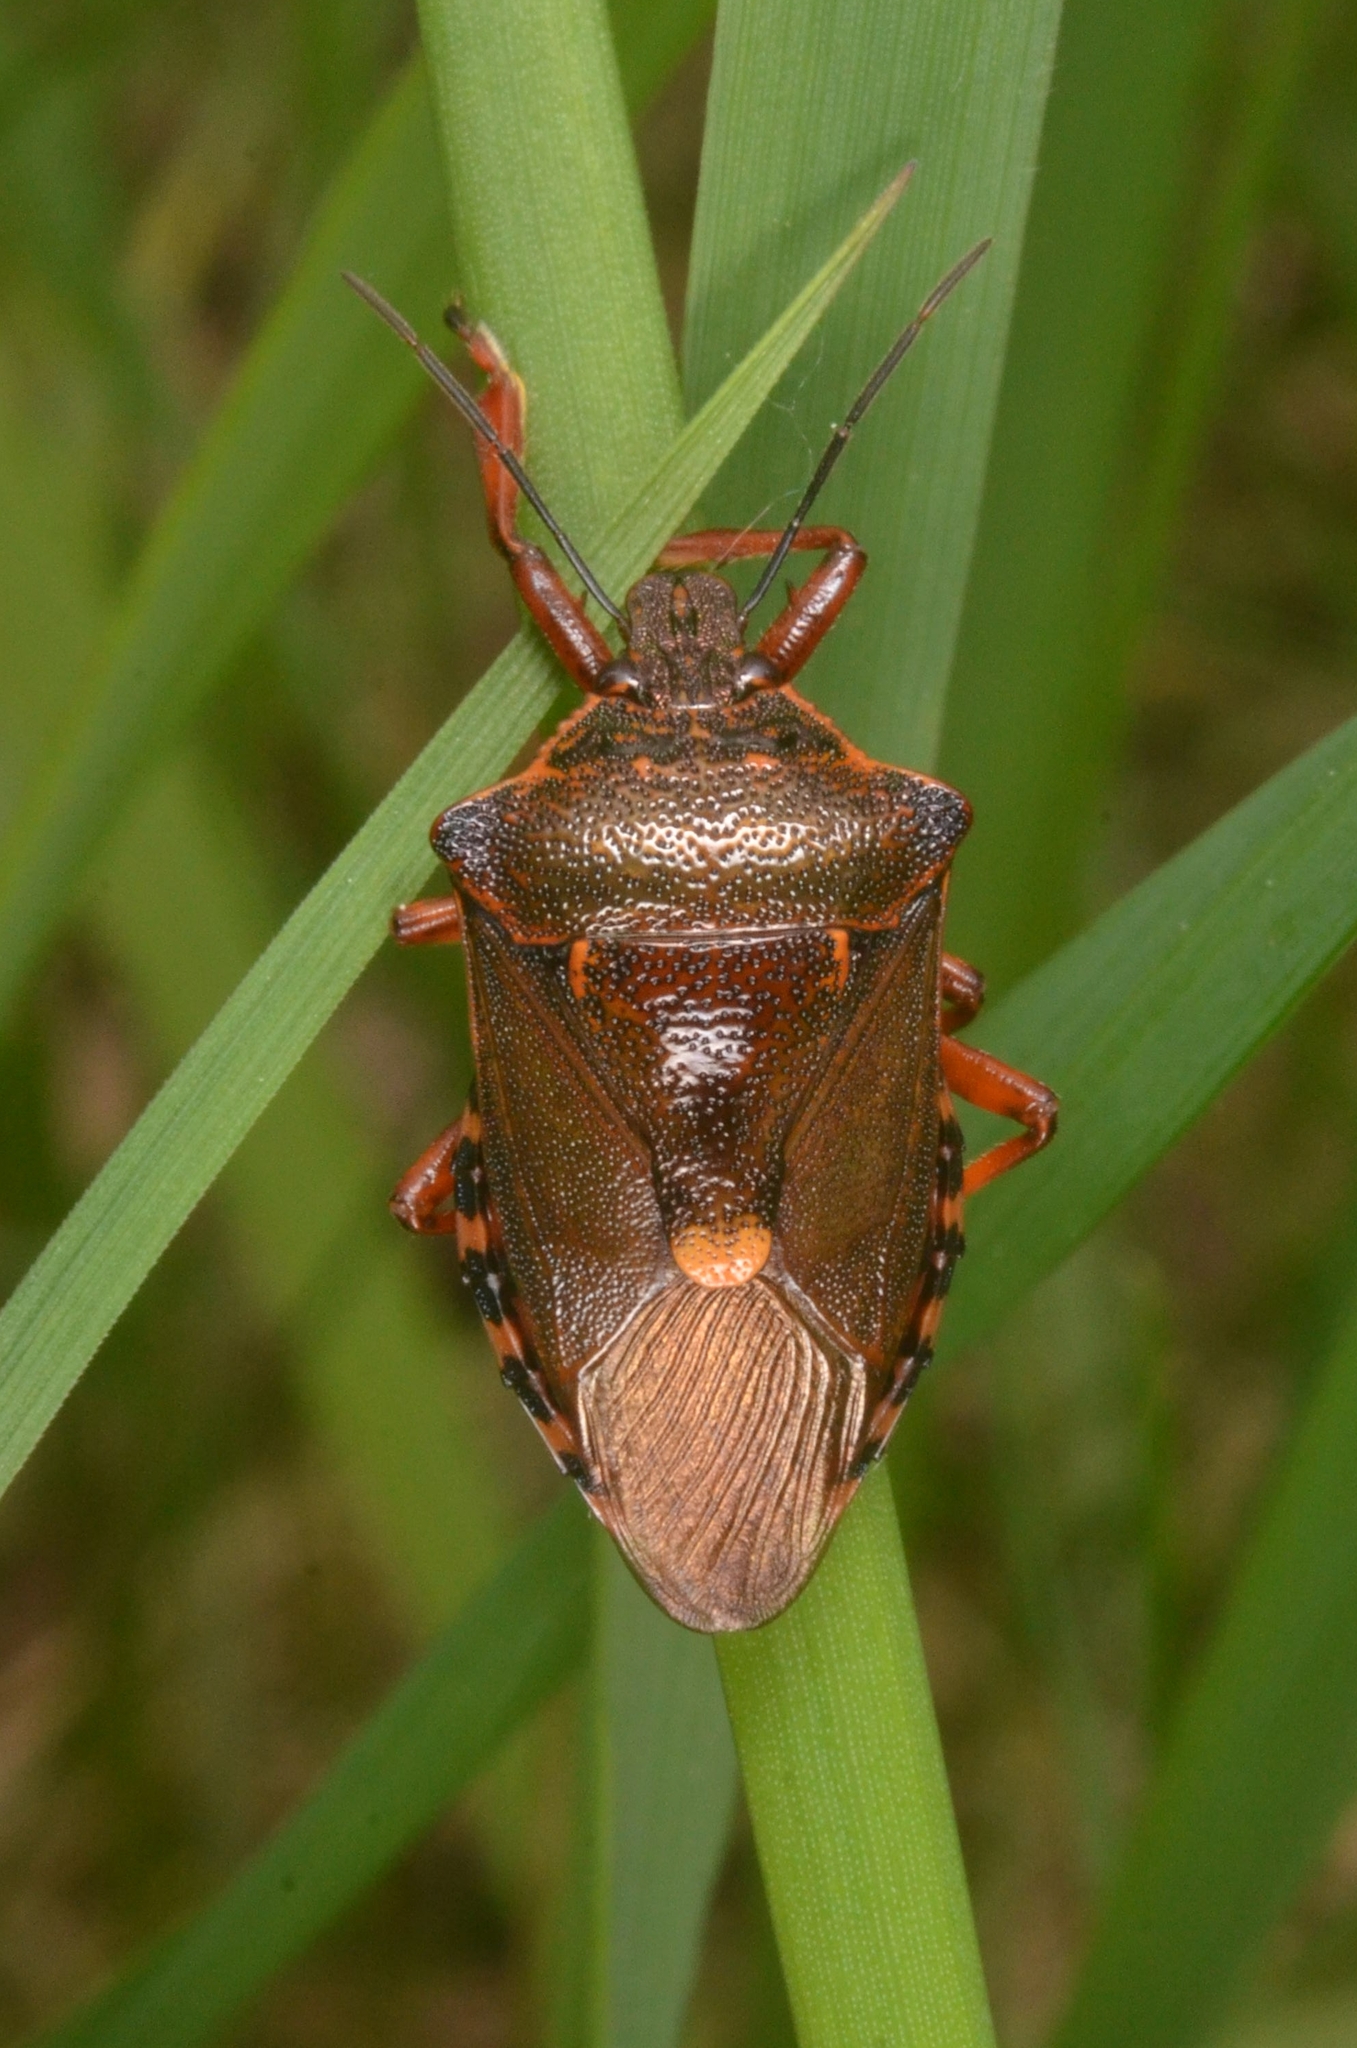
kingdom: Animalia
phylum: Arthropoda
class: Insecta
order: Hemiptera
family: Pentatomidae
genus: Pinthaeus
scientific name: Pinthaeus sanguinipes
